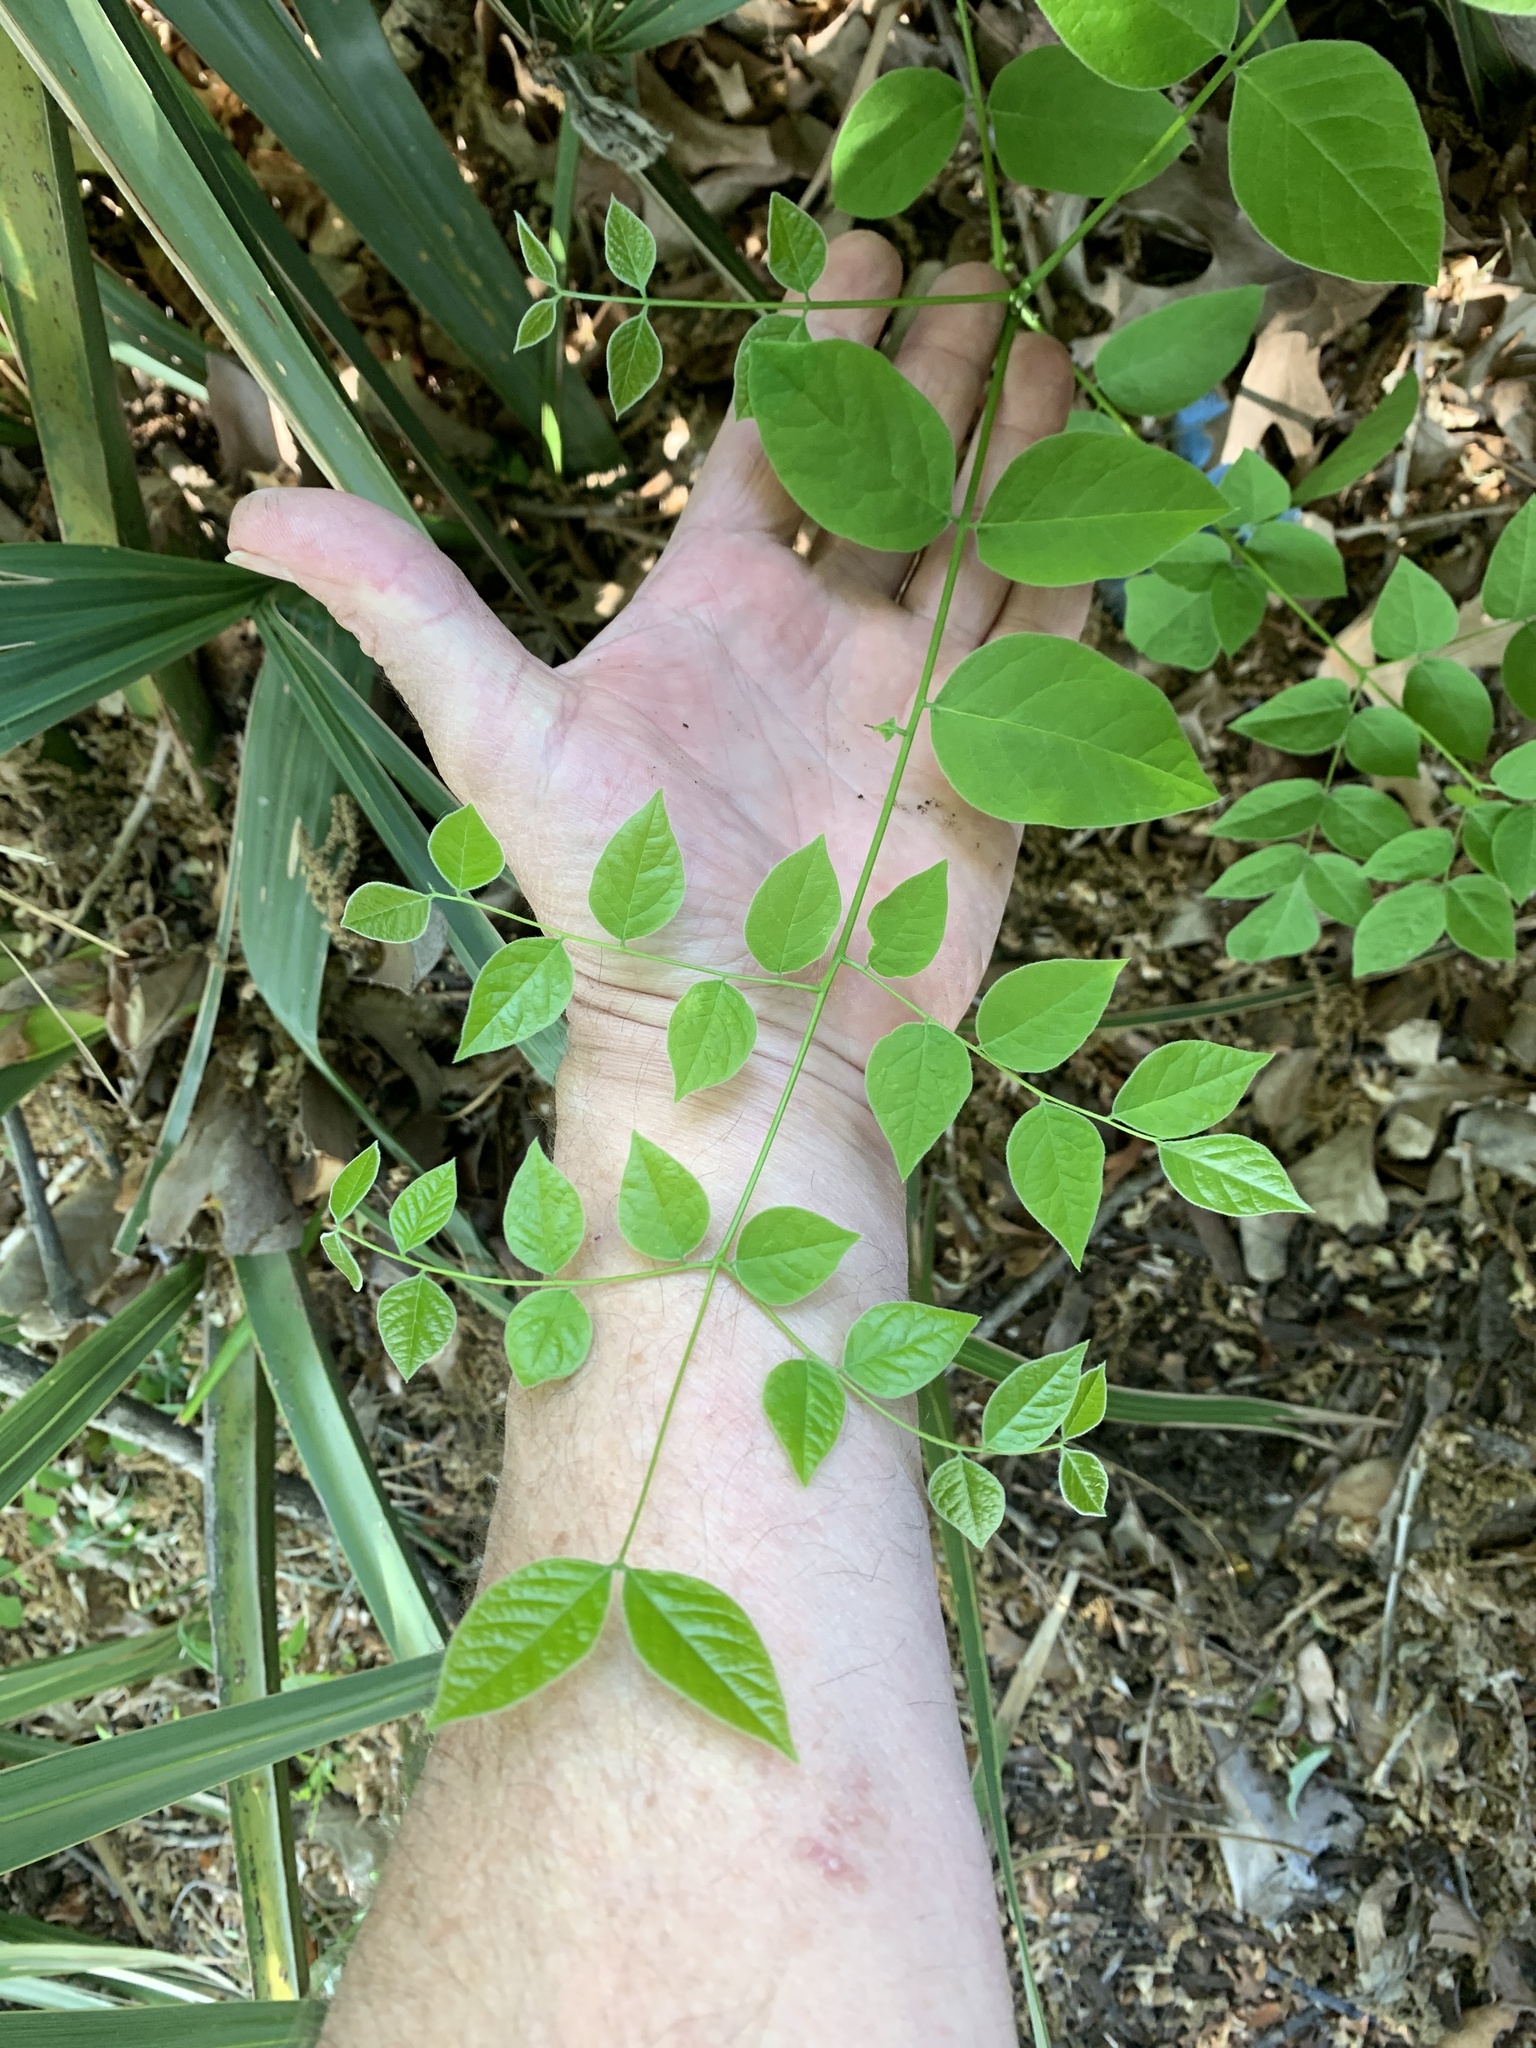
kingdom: Plantae
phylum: Tracheophyta
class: Magnoliopsida
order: Fabales
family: Fabaceae
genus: Gymnocladus
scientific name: Gymnocladus dioicus
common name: Kentucky coffee-tree
